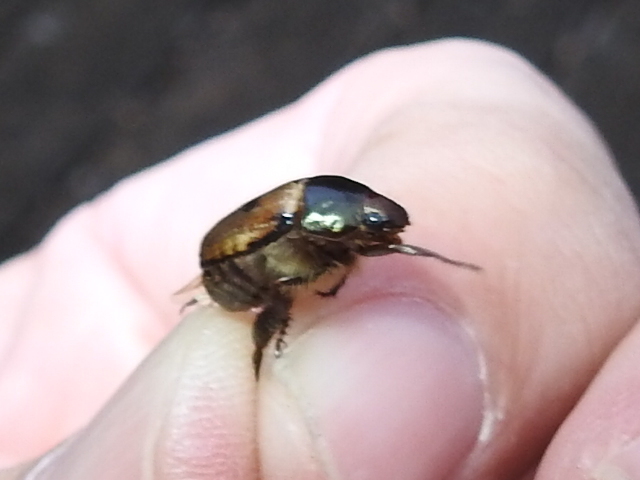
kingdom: Animalia
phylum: Arthropoda
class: Insecta
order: Coleoptera
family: Scarabaeidae
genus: Paranomala
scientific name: Paranomala binotata
